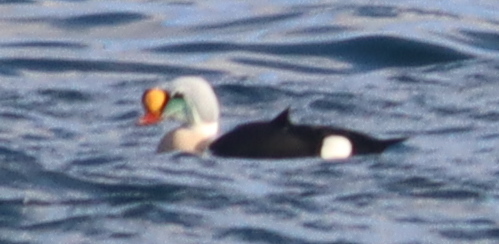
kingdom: Animalia
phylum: Chordata
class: Aves
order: Anseriformes
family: Anatidae
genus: Somateria
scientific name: Somateria spectabilis
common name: King eider
